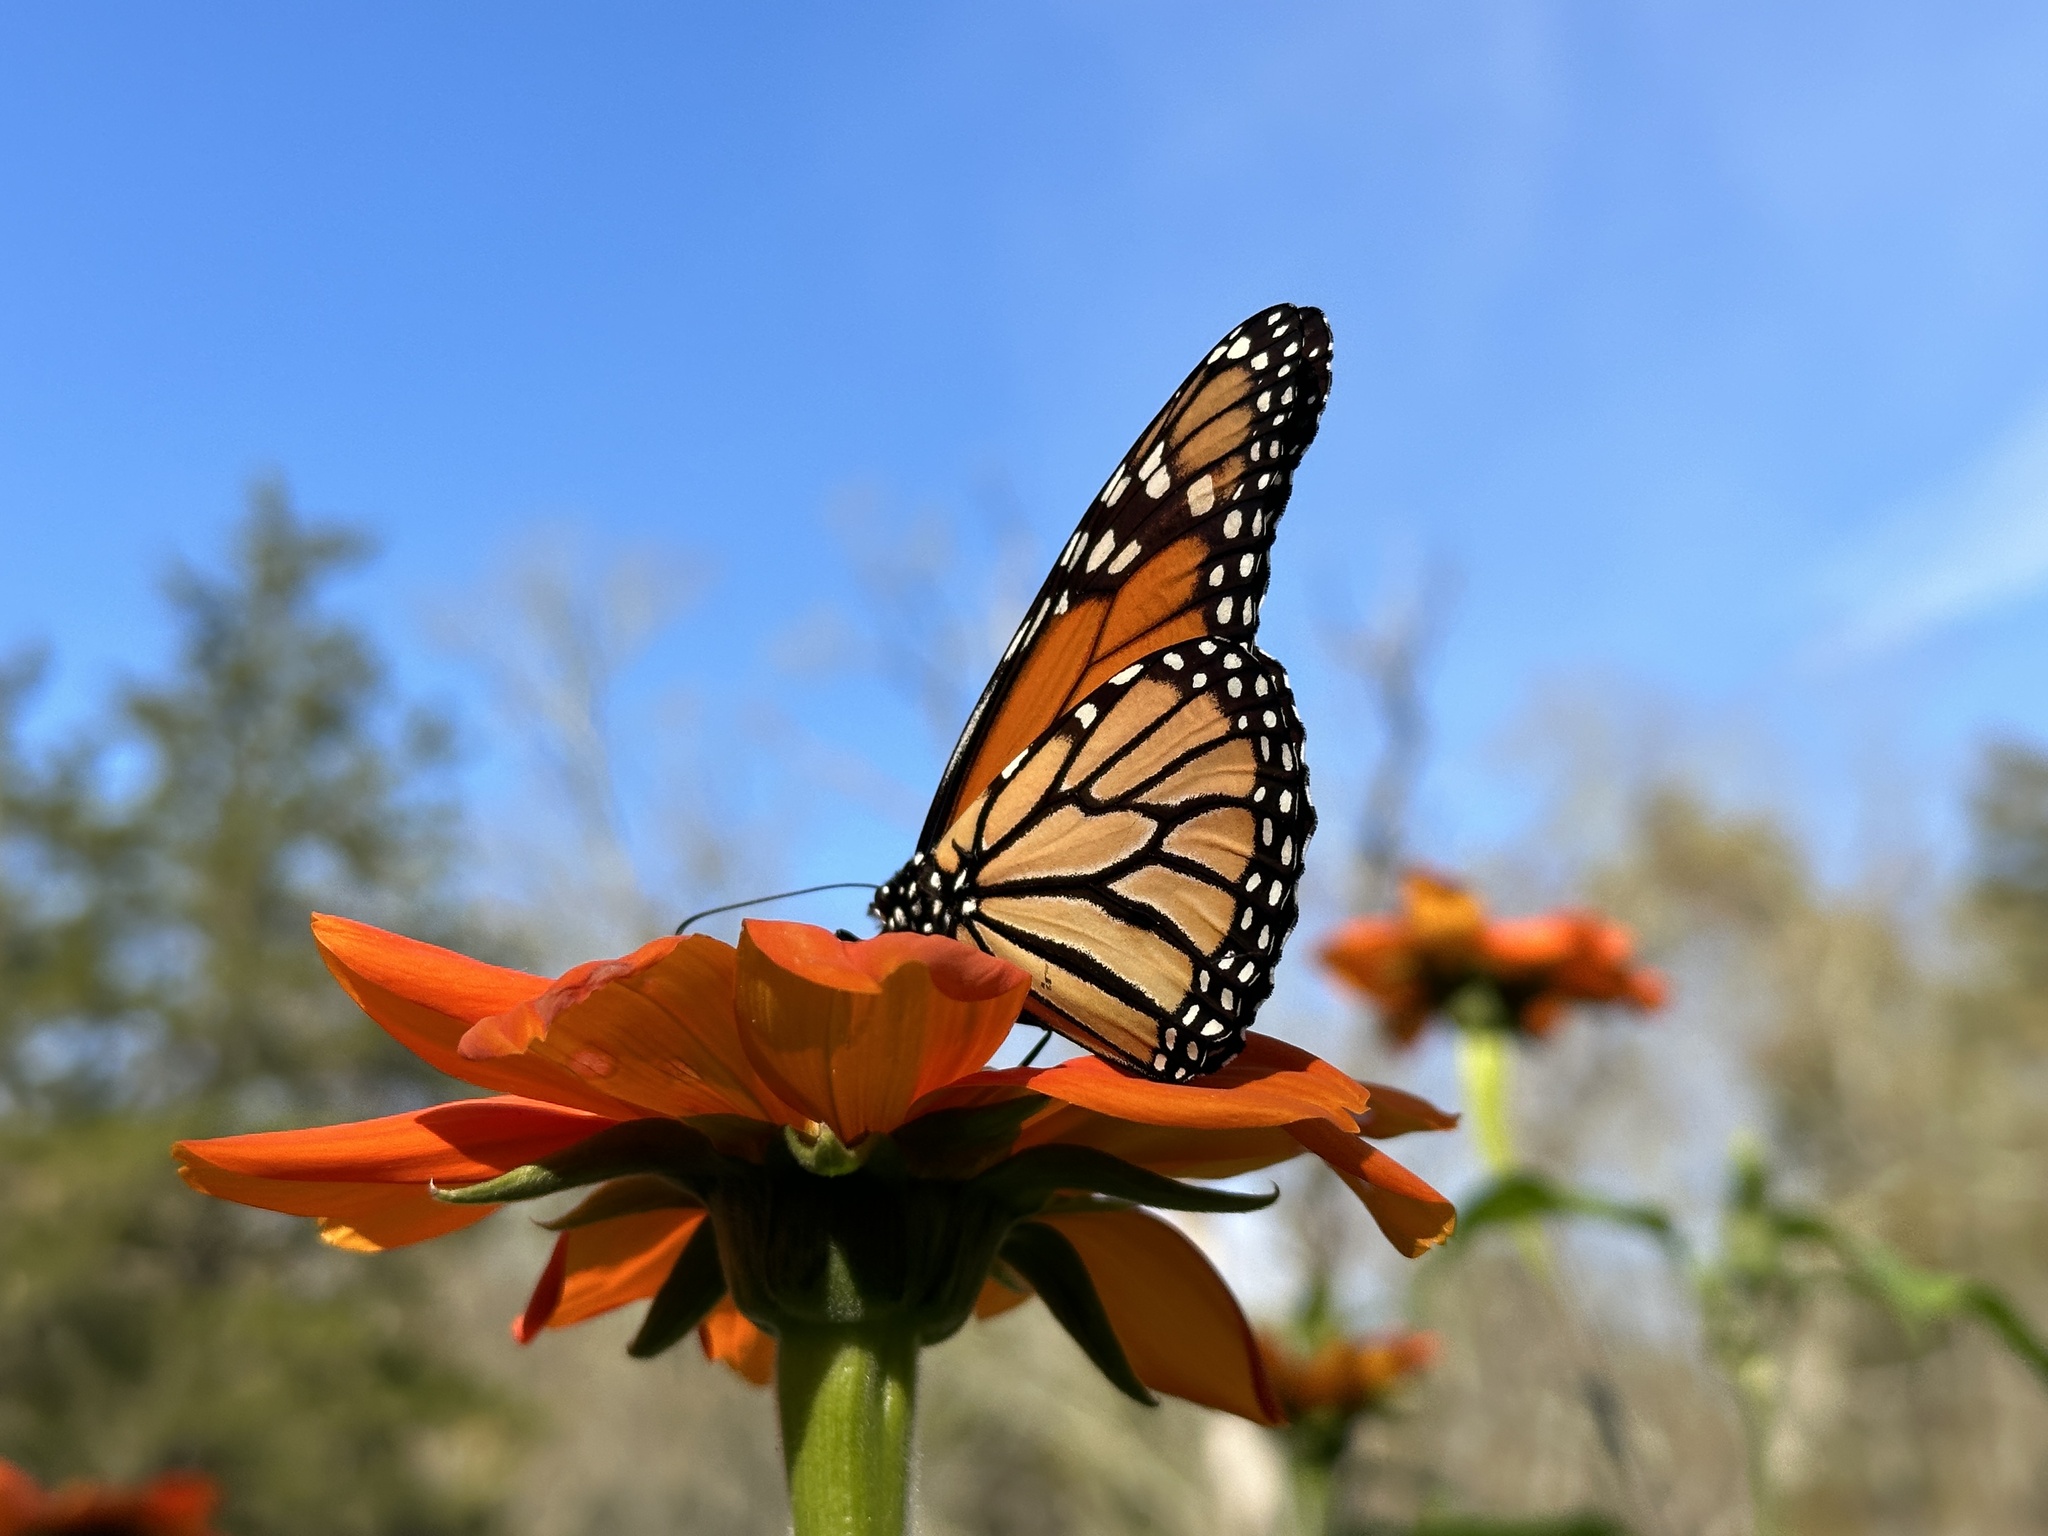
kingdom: Animalia
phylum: Arthropoda
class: Insecta
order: Lepidoptera
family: Nymphalidae
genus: Danaus
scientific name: Danaus plexippus
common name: Monarch
